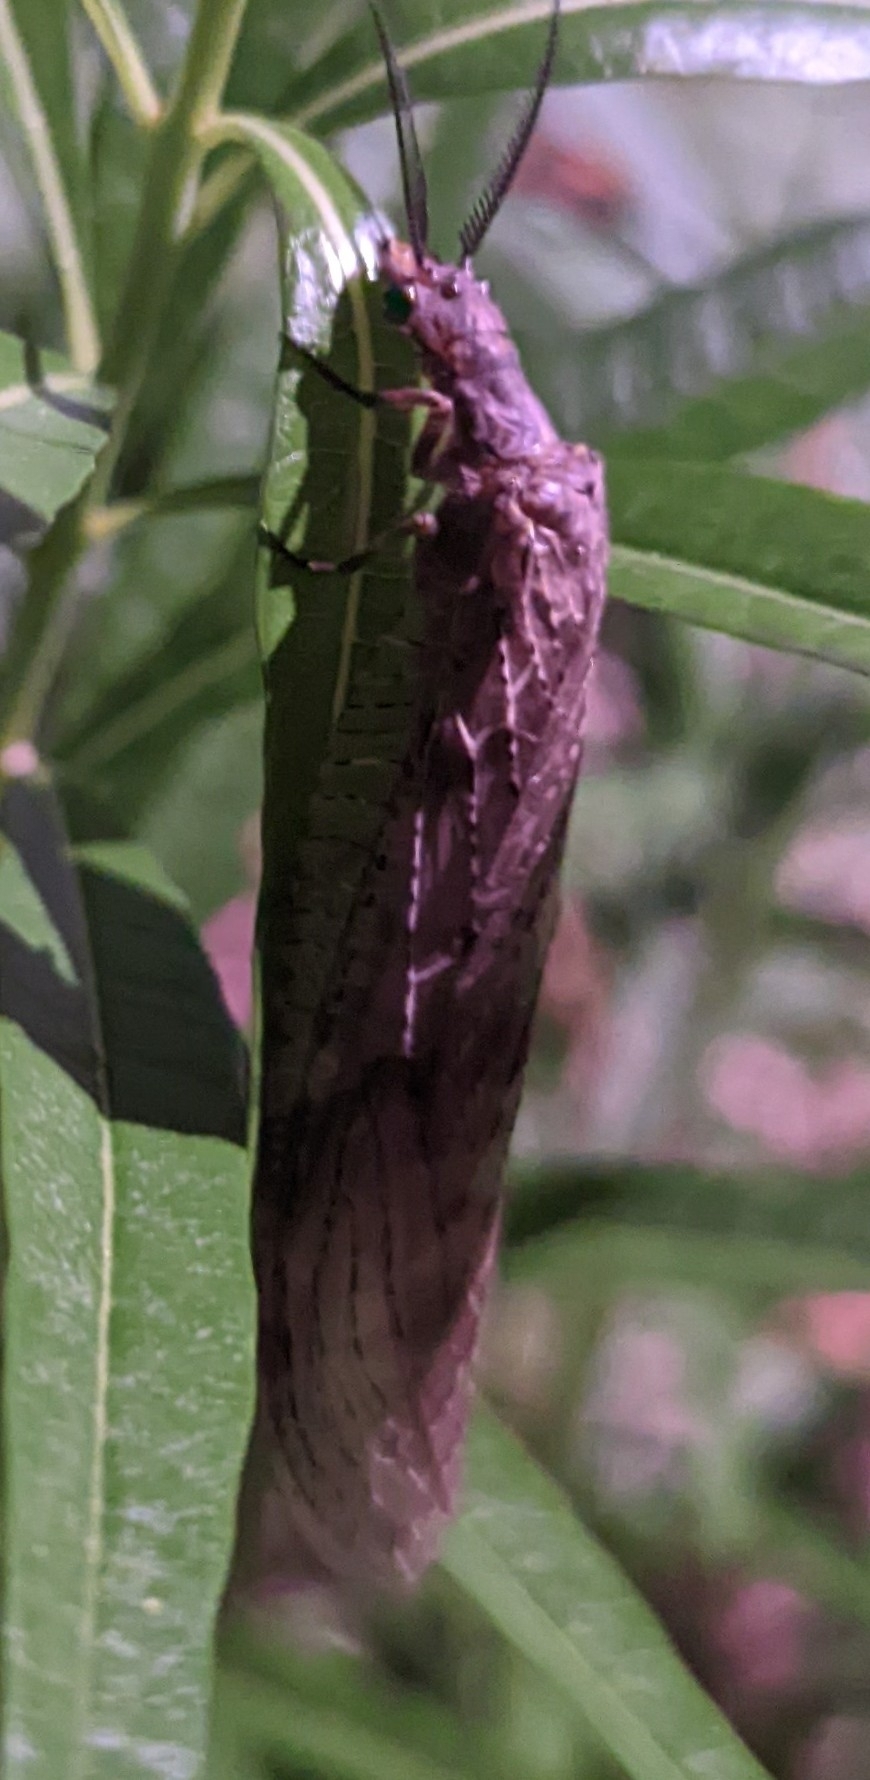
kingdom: Animalia
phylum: Arthropoda
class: Insecta
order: Megaloptera
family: Corydalidae
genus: Chauliodes
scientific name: Chauliodes pectinicornis
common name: Summer fishfly
